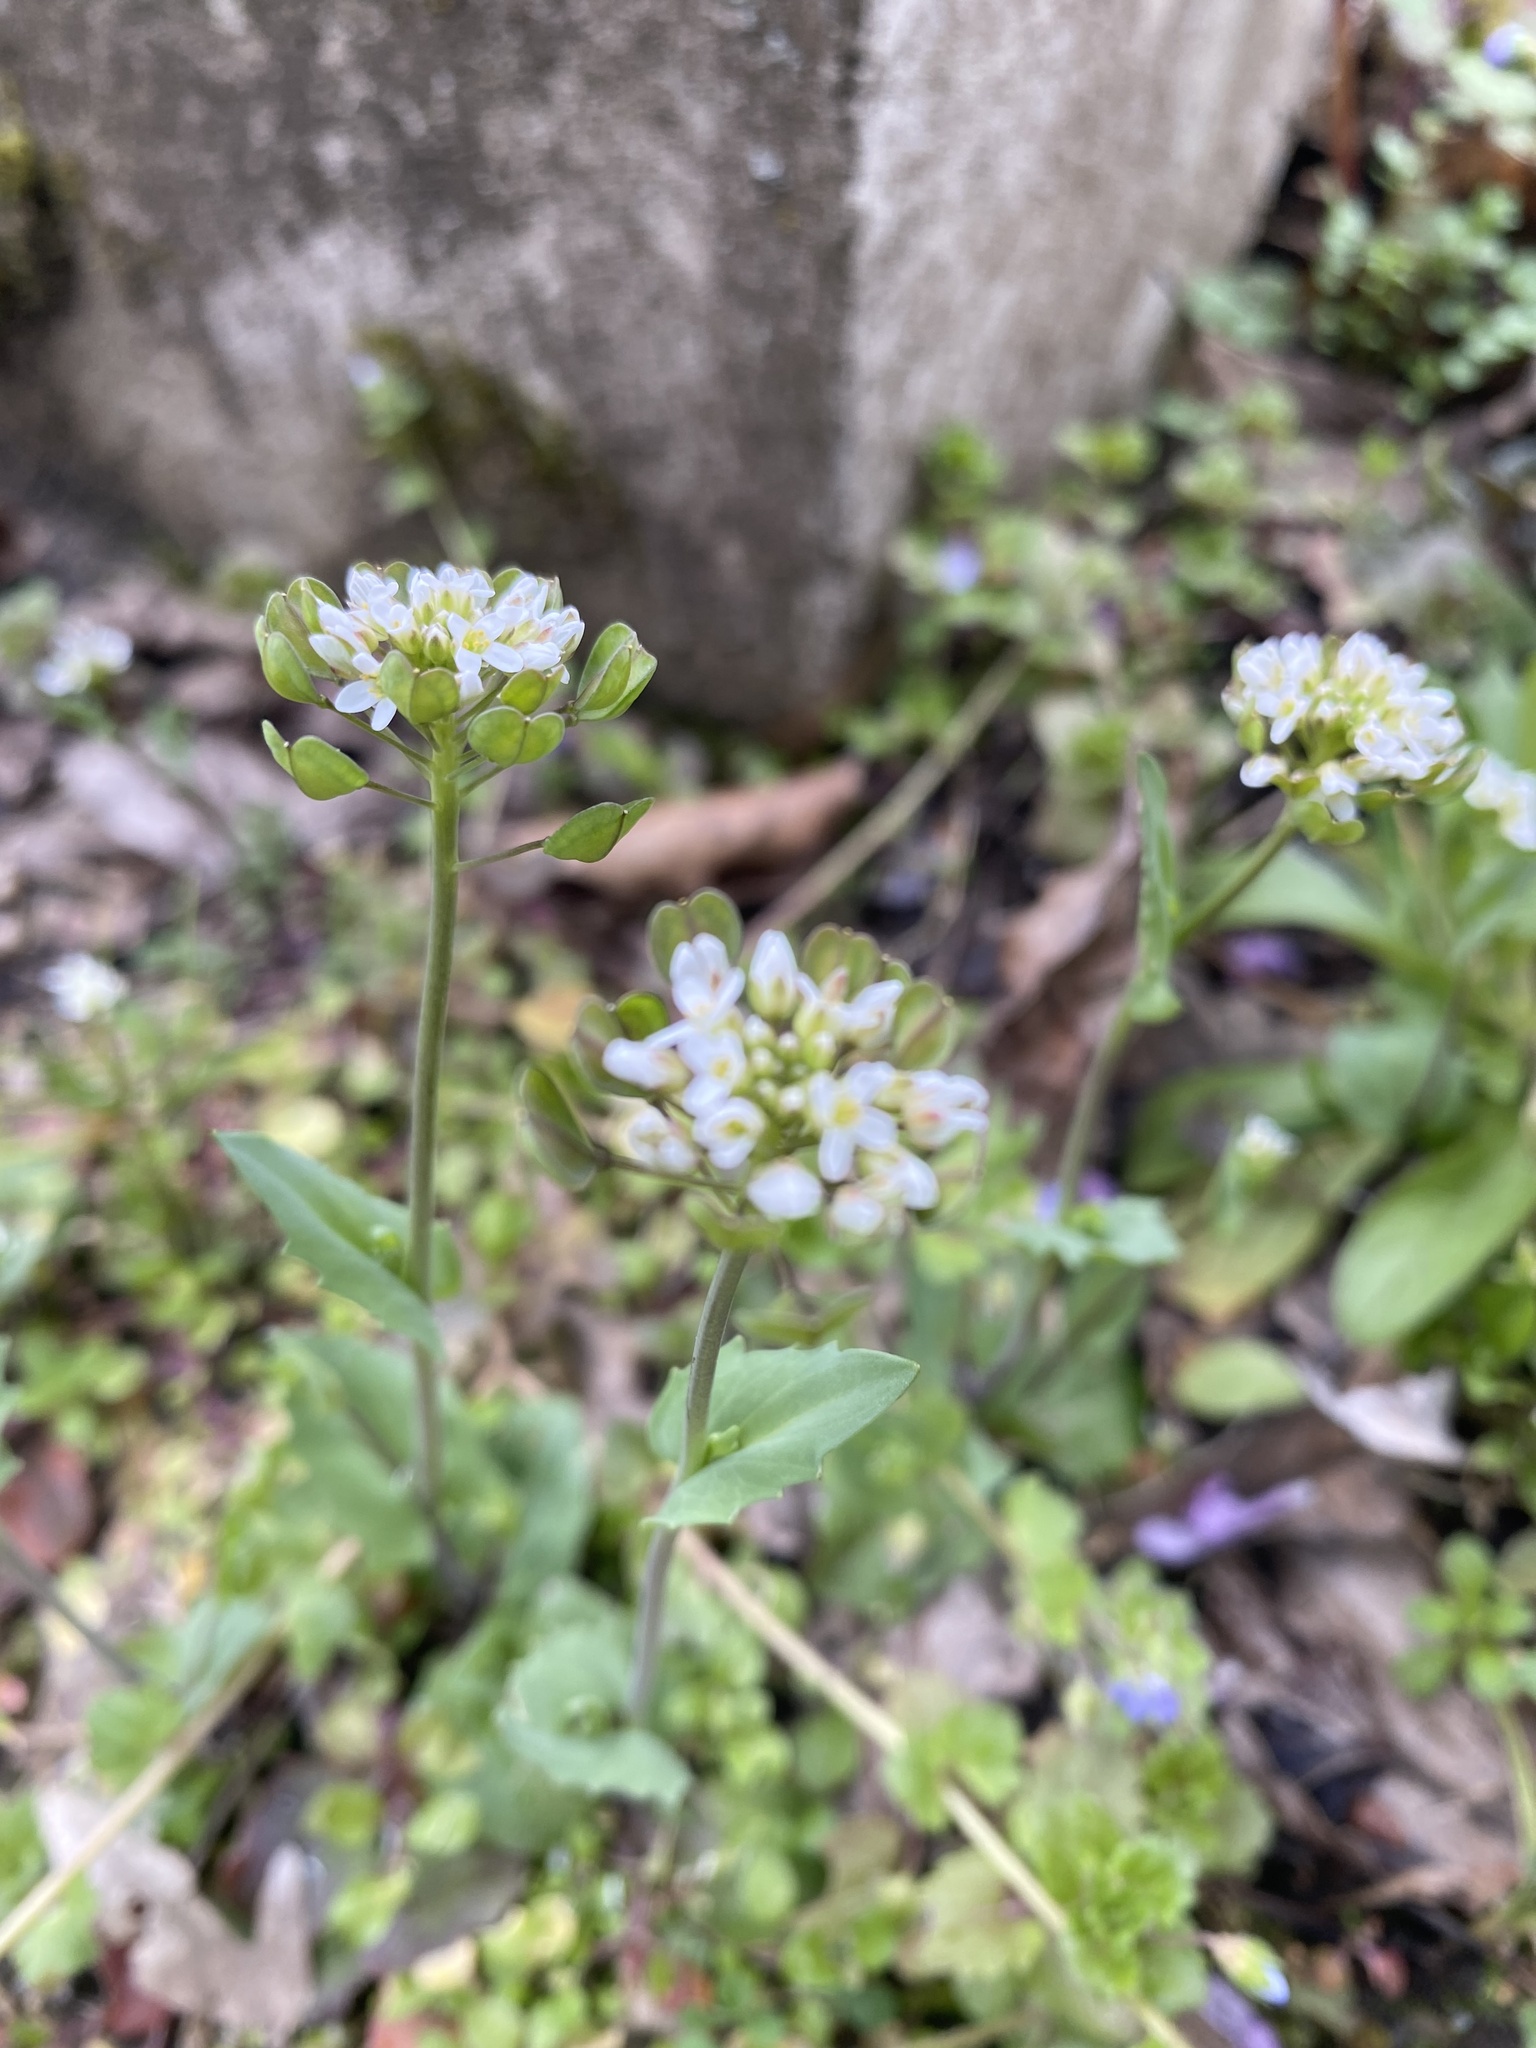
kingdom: Plantae
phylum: Tracheophyta
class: Magnoliopsida
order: Brassicales
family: Brassicaceae
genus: Noccaea
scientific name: Noccaea perfoliata
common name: Perfoliate pennycress
